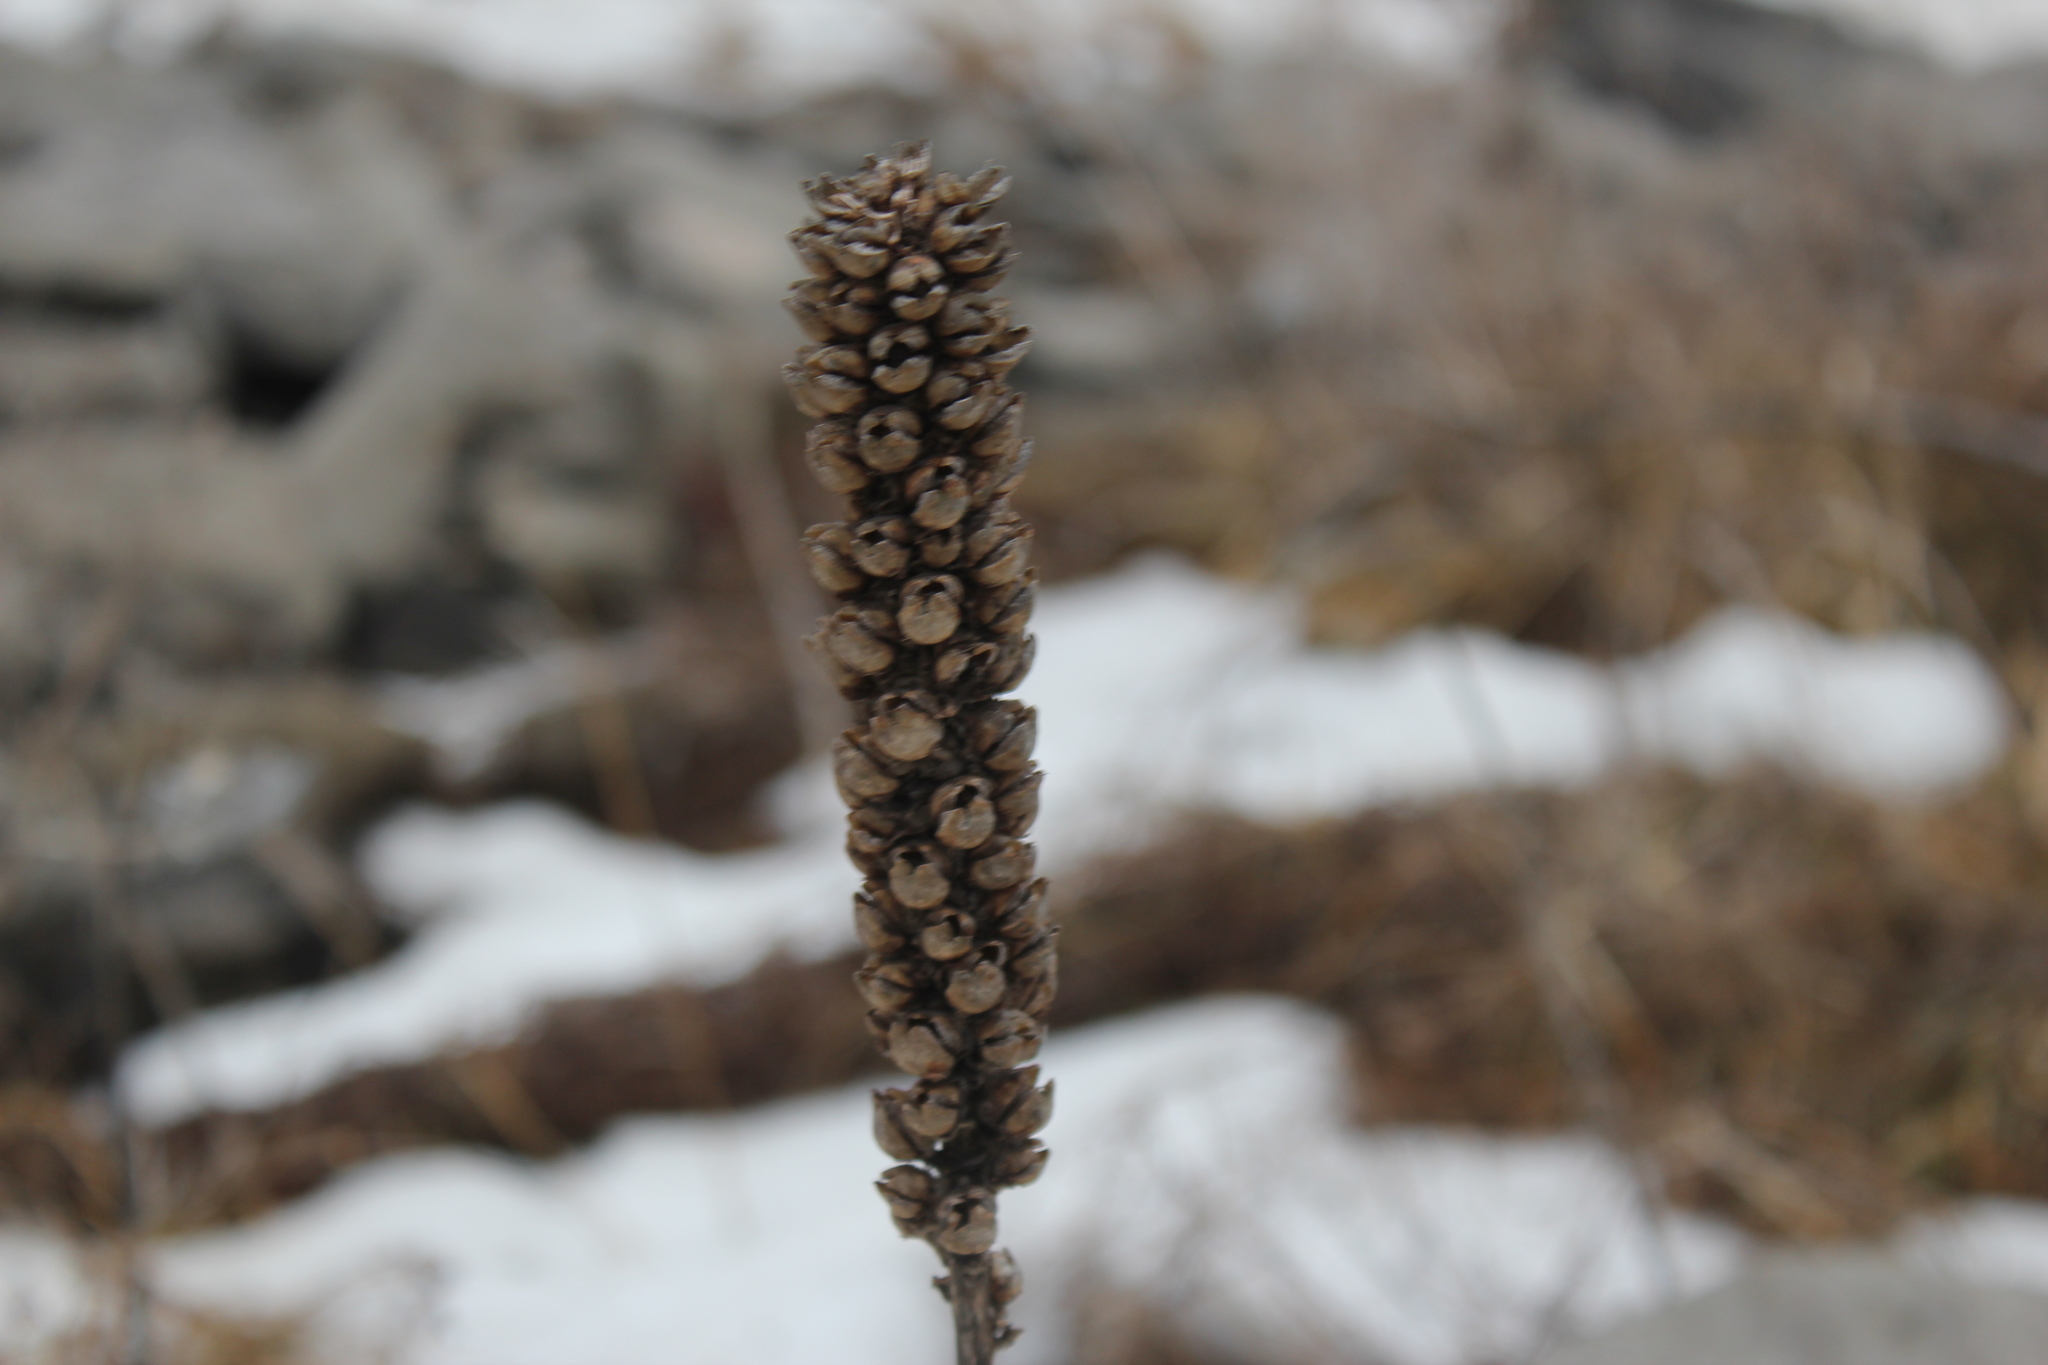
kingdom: Plantae
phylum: Tracheophyta
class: Magnoliopsida
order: Lamiales
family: Scrophulariaceae
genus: Verbascum
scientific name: Verbascum thapsus
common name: Common mullein
